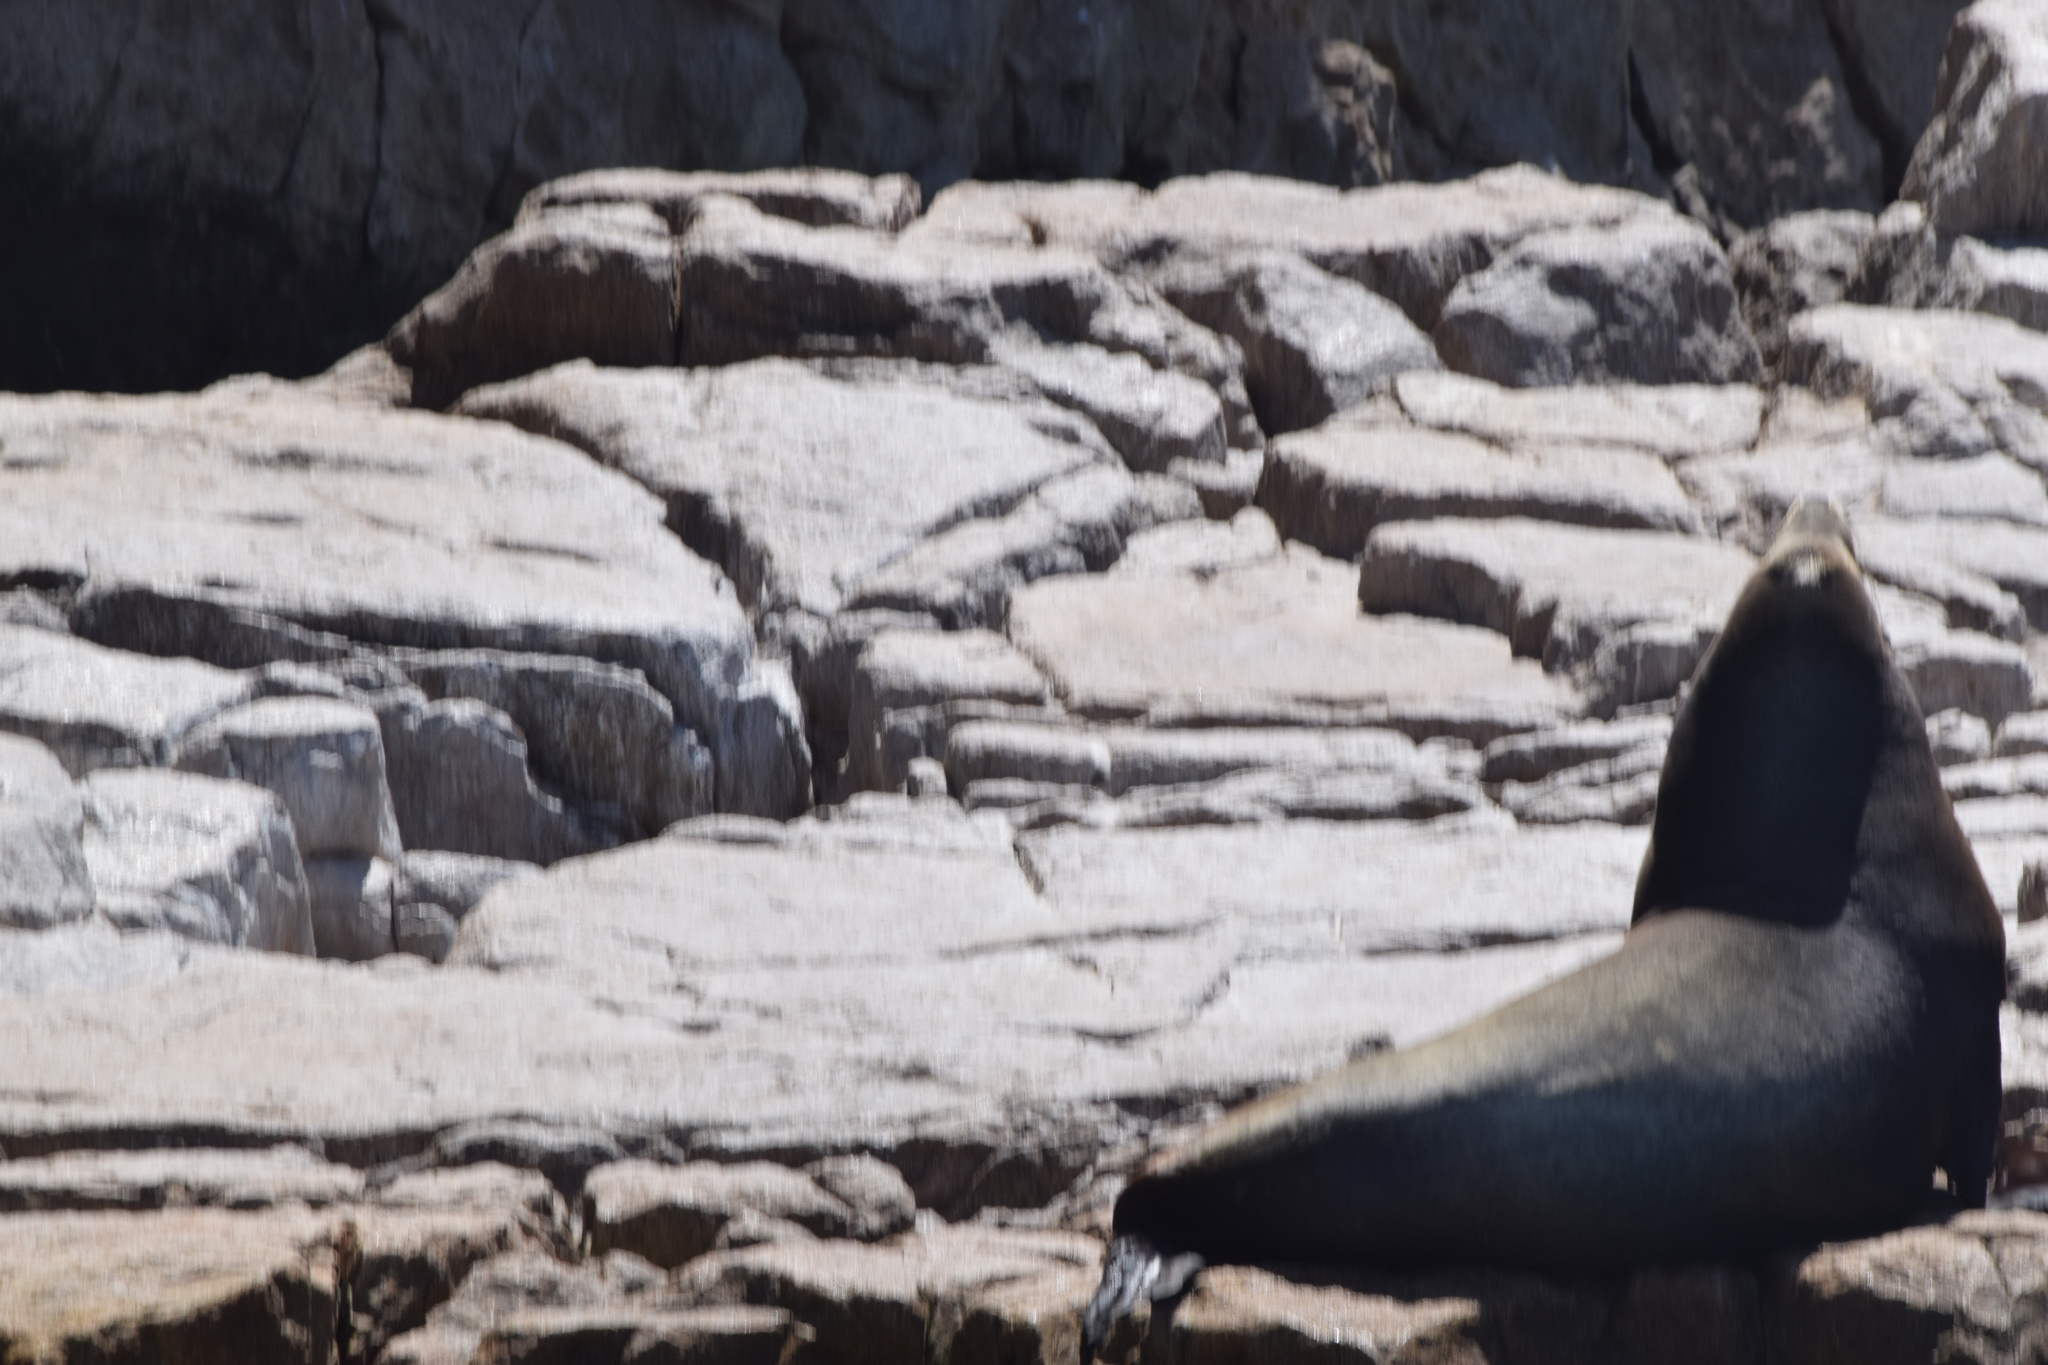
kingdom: Animalia
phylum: Chordata
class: Mammalia
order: Carnivora
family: Otariidae
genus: Zalophus
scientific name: Zalophus californianus
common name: California sea lion
